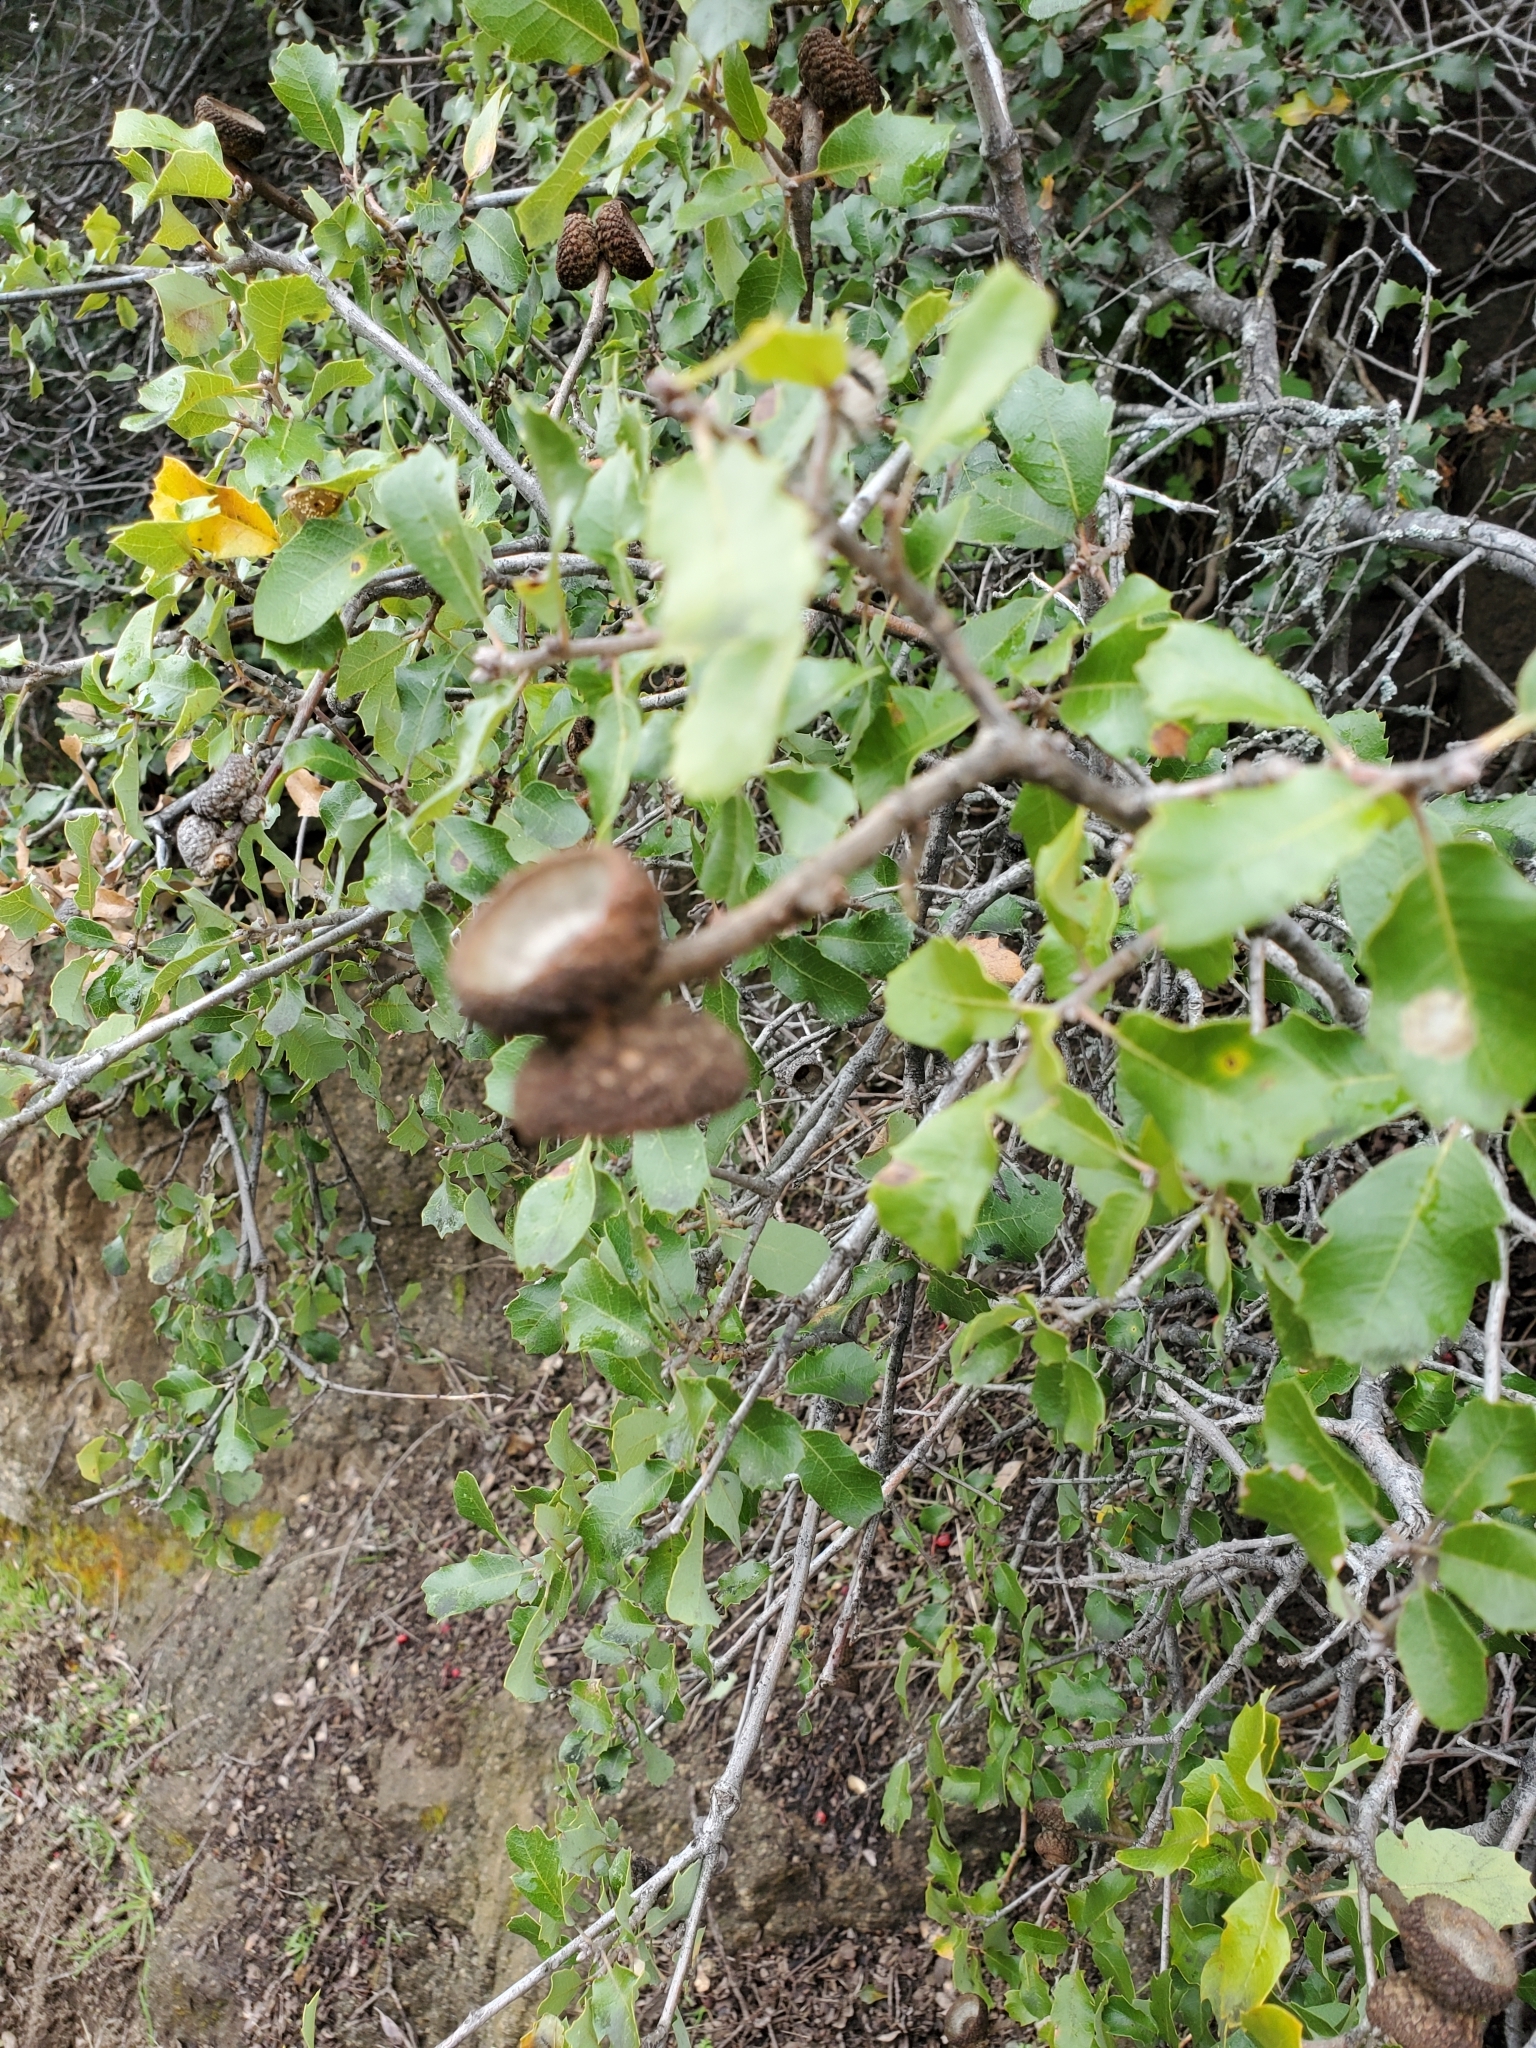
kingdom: Plantae
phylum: Tracheophyta
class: Magnoliopsida
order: Fagales
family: Fagaceae
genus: Quercus
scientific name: Quercus berberidifolia
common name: California scrub oak
